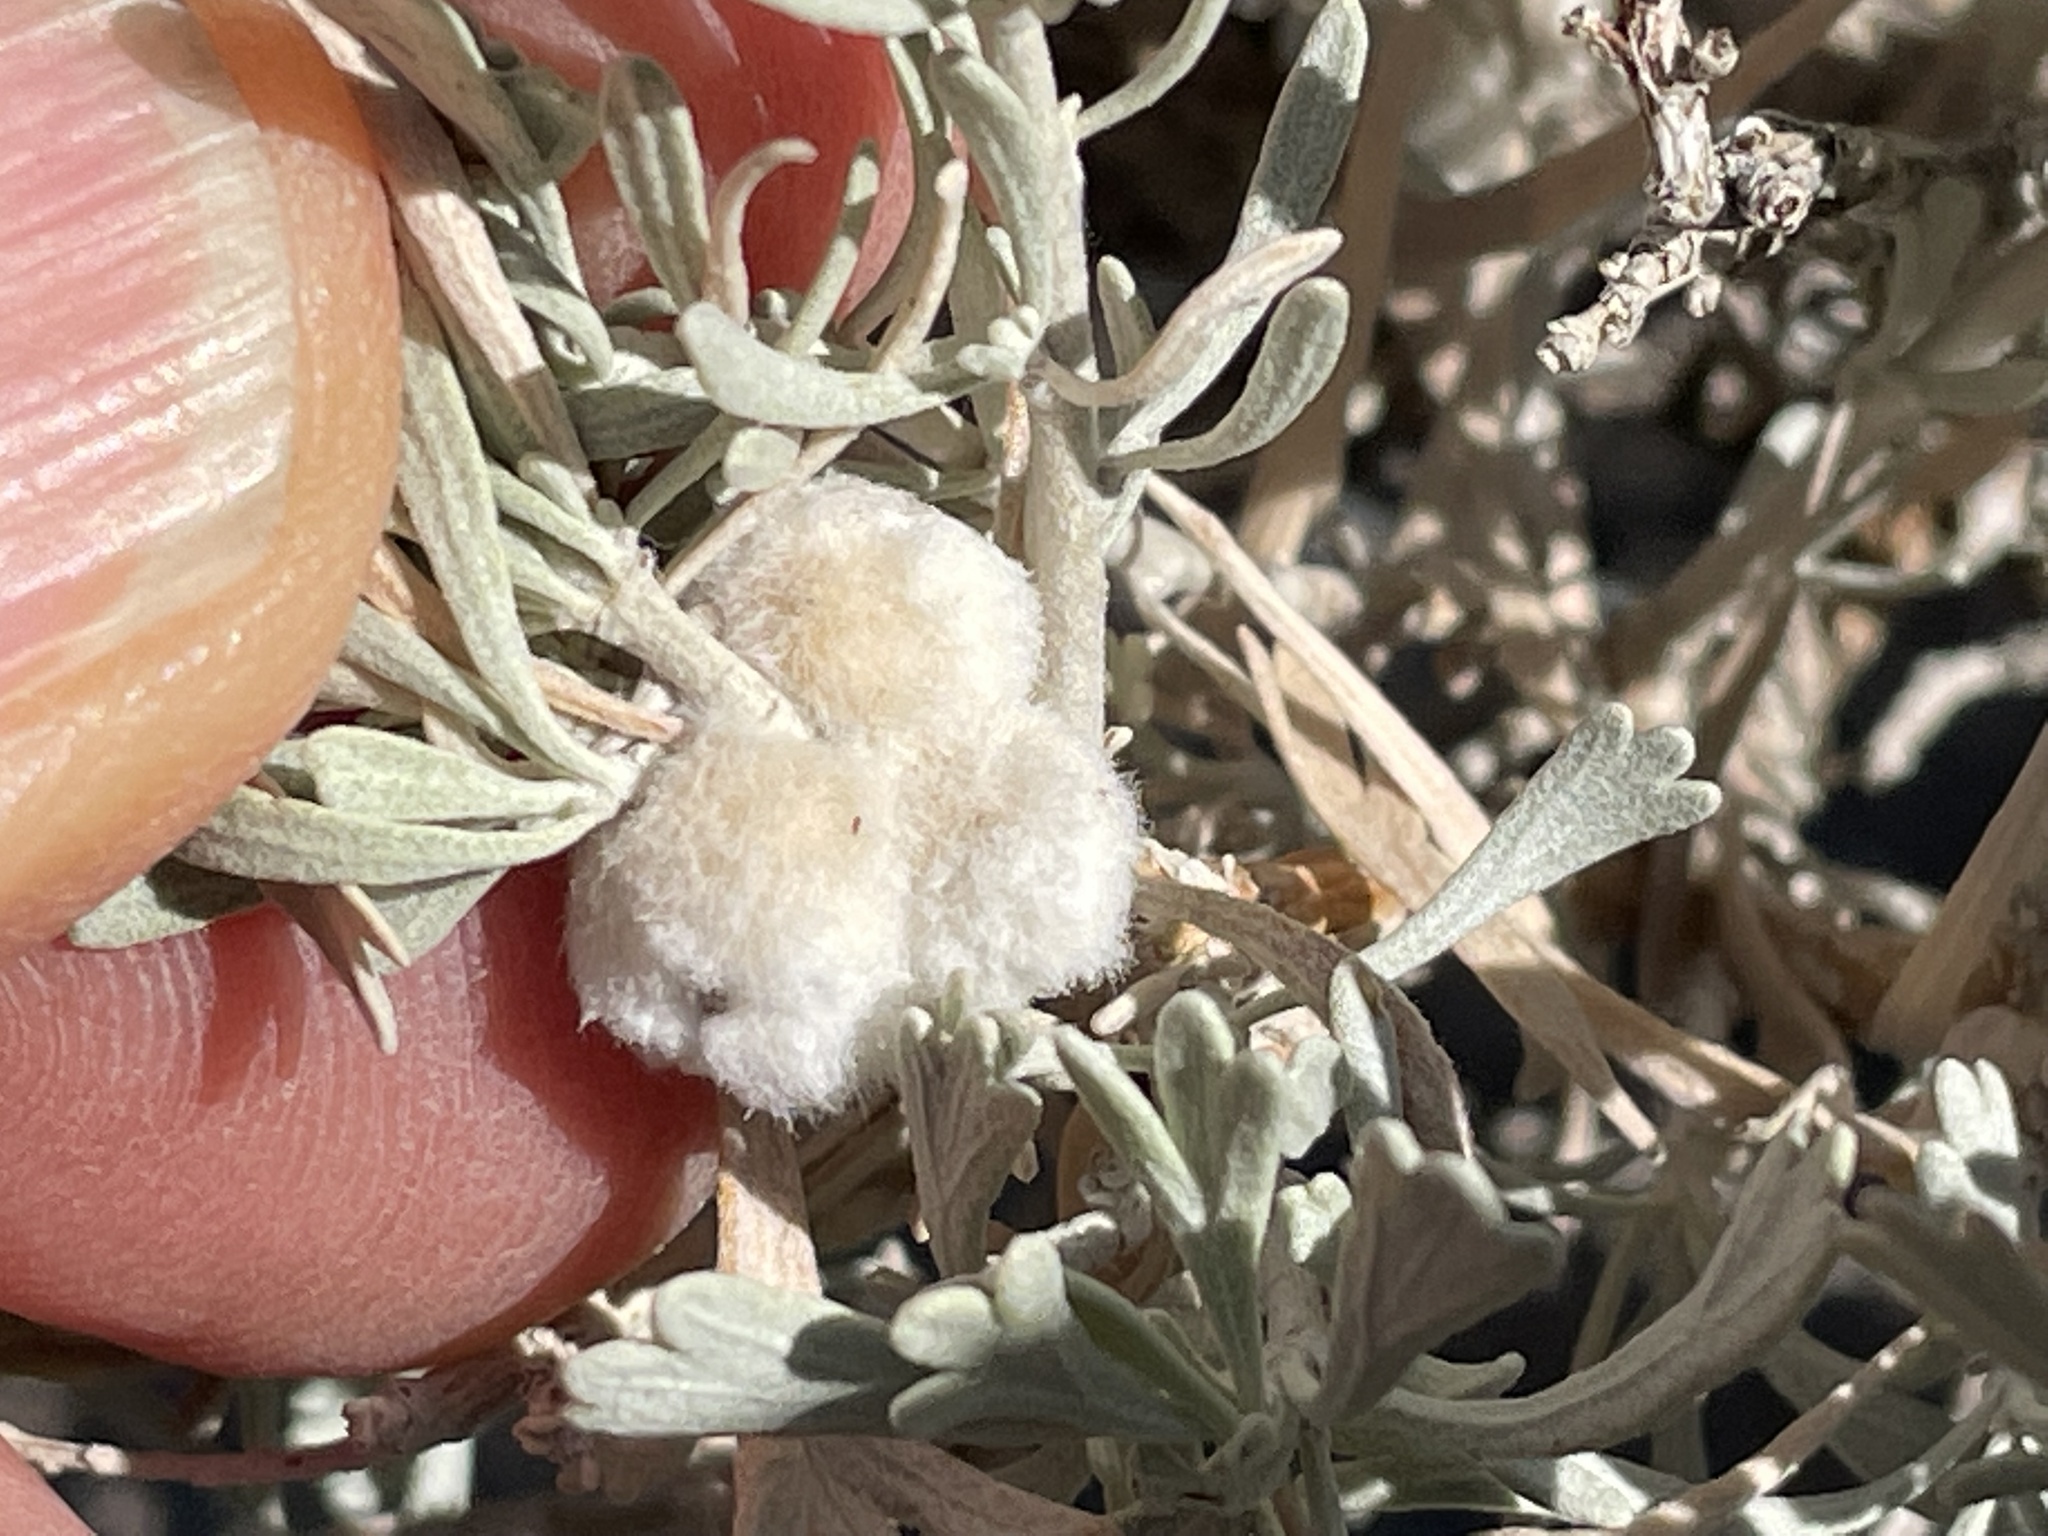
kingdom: Plantae
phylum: Tracheophyta
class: Magnoliopsida
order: Asterales
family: Asteraceae
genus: Artemisia
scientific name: Artemisia tridentata
